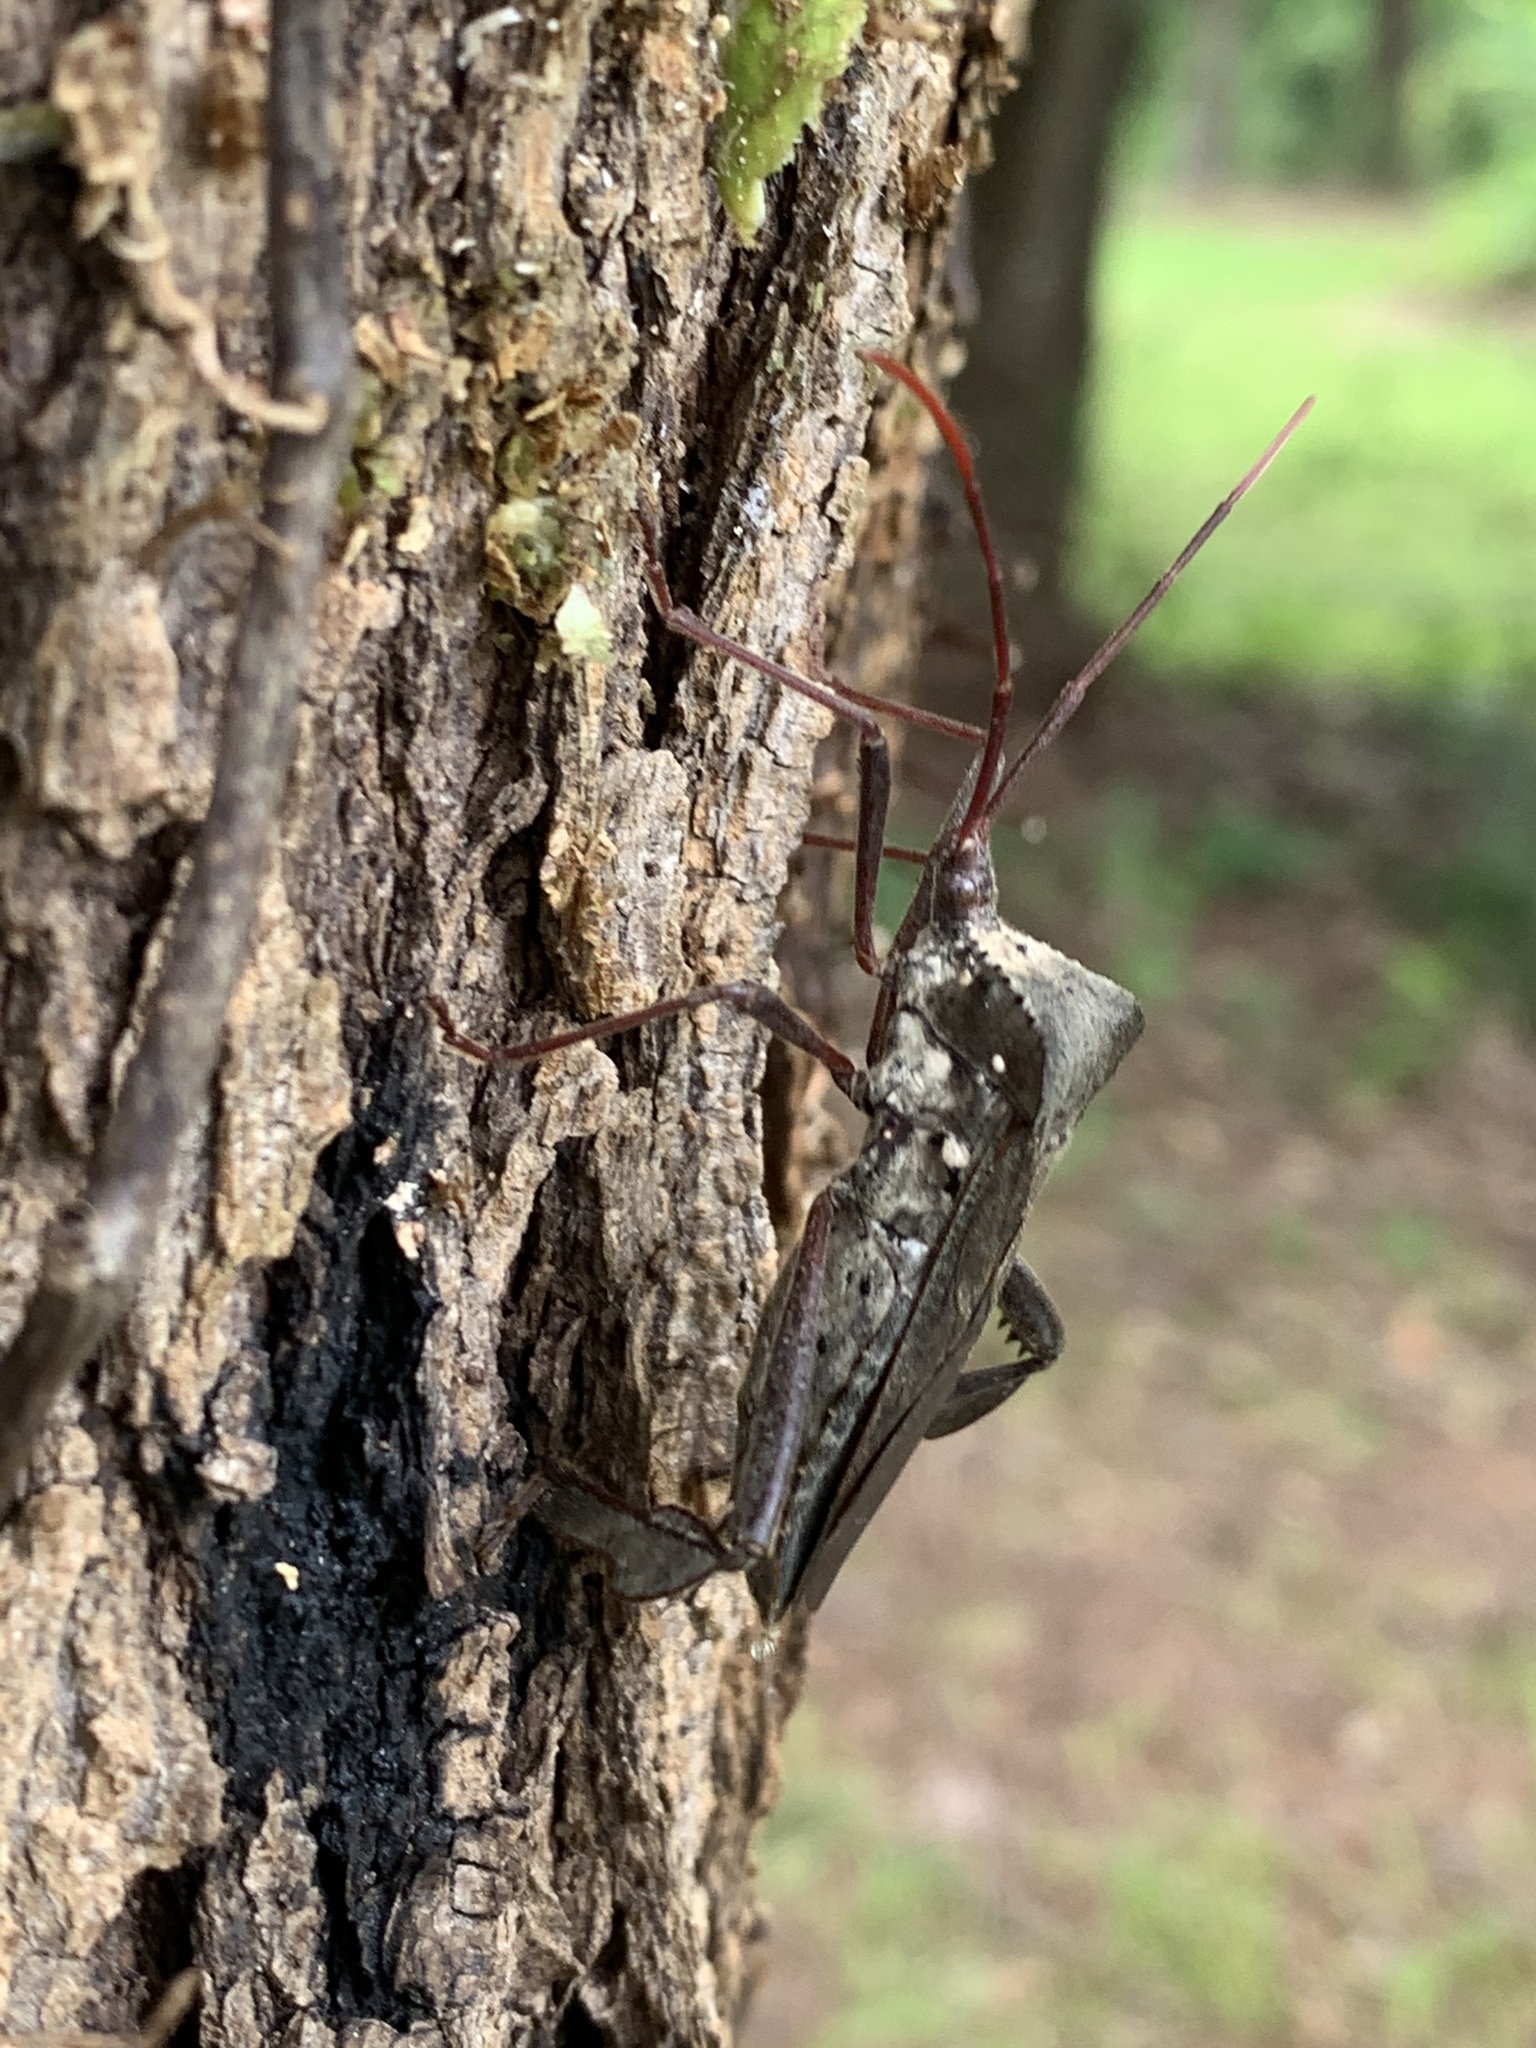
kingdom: Animalia
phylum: Arthropoda
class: Insecta
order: Hemiptera
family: Coreidae
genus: Acanthocephala
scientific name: Acanthocephala declivis
